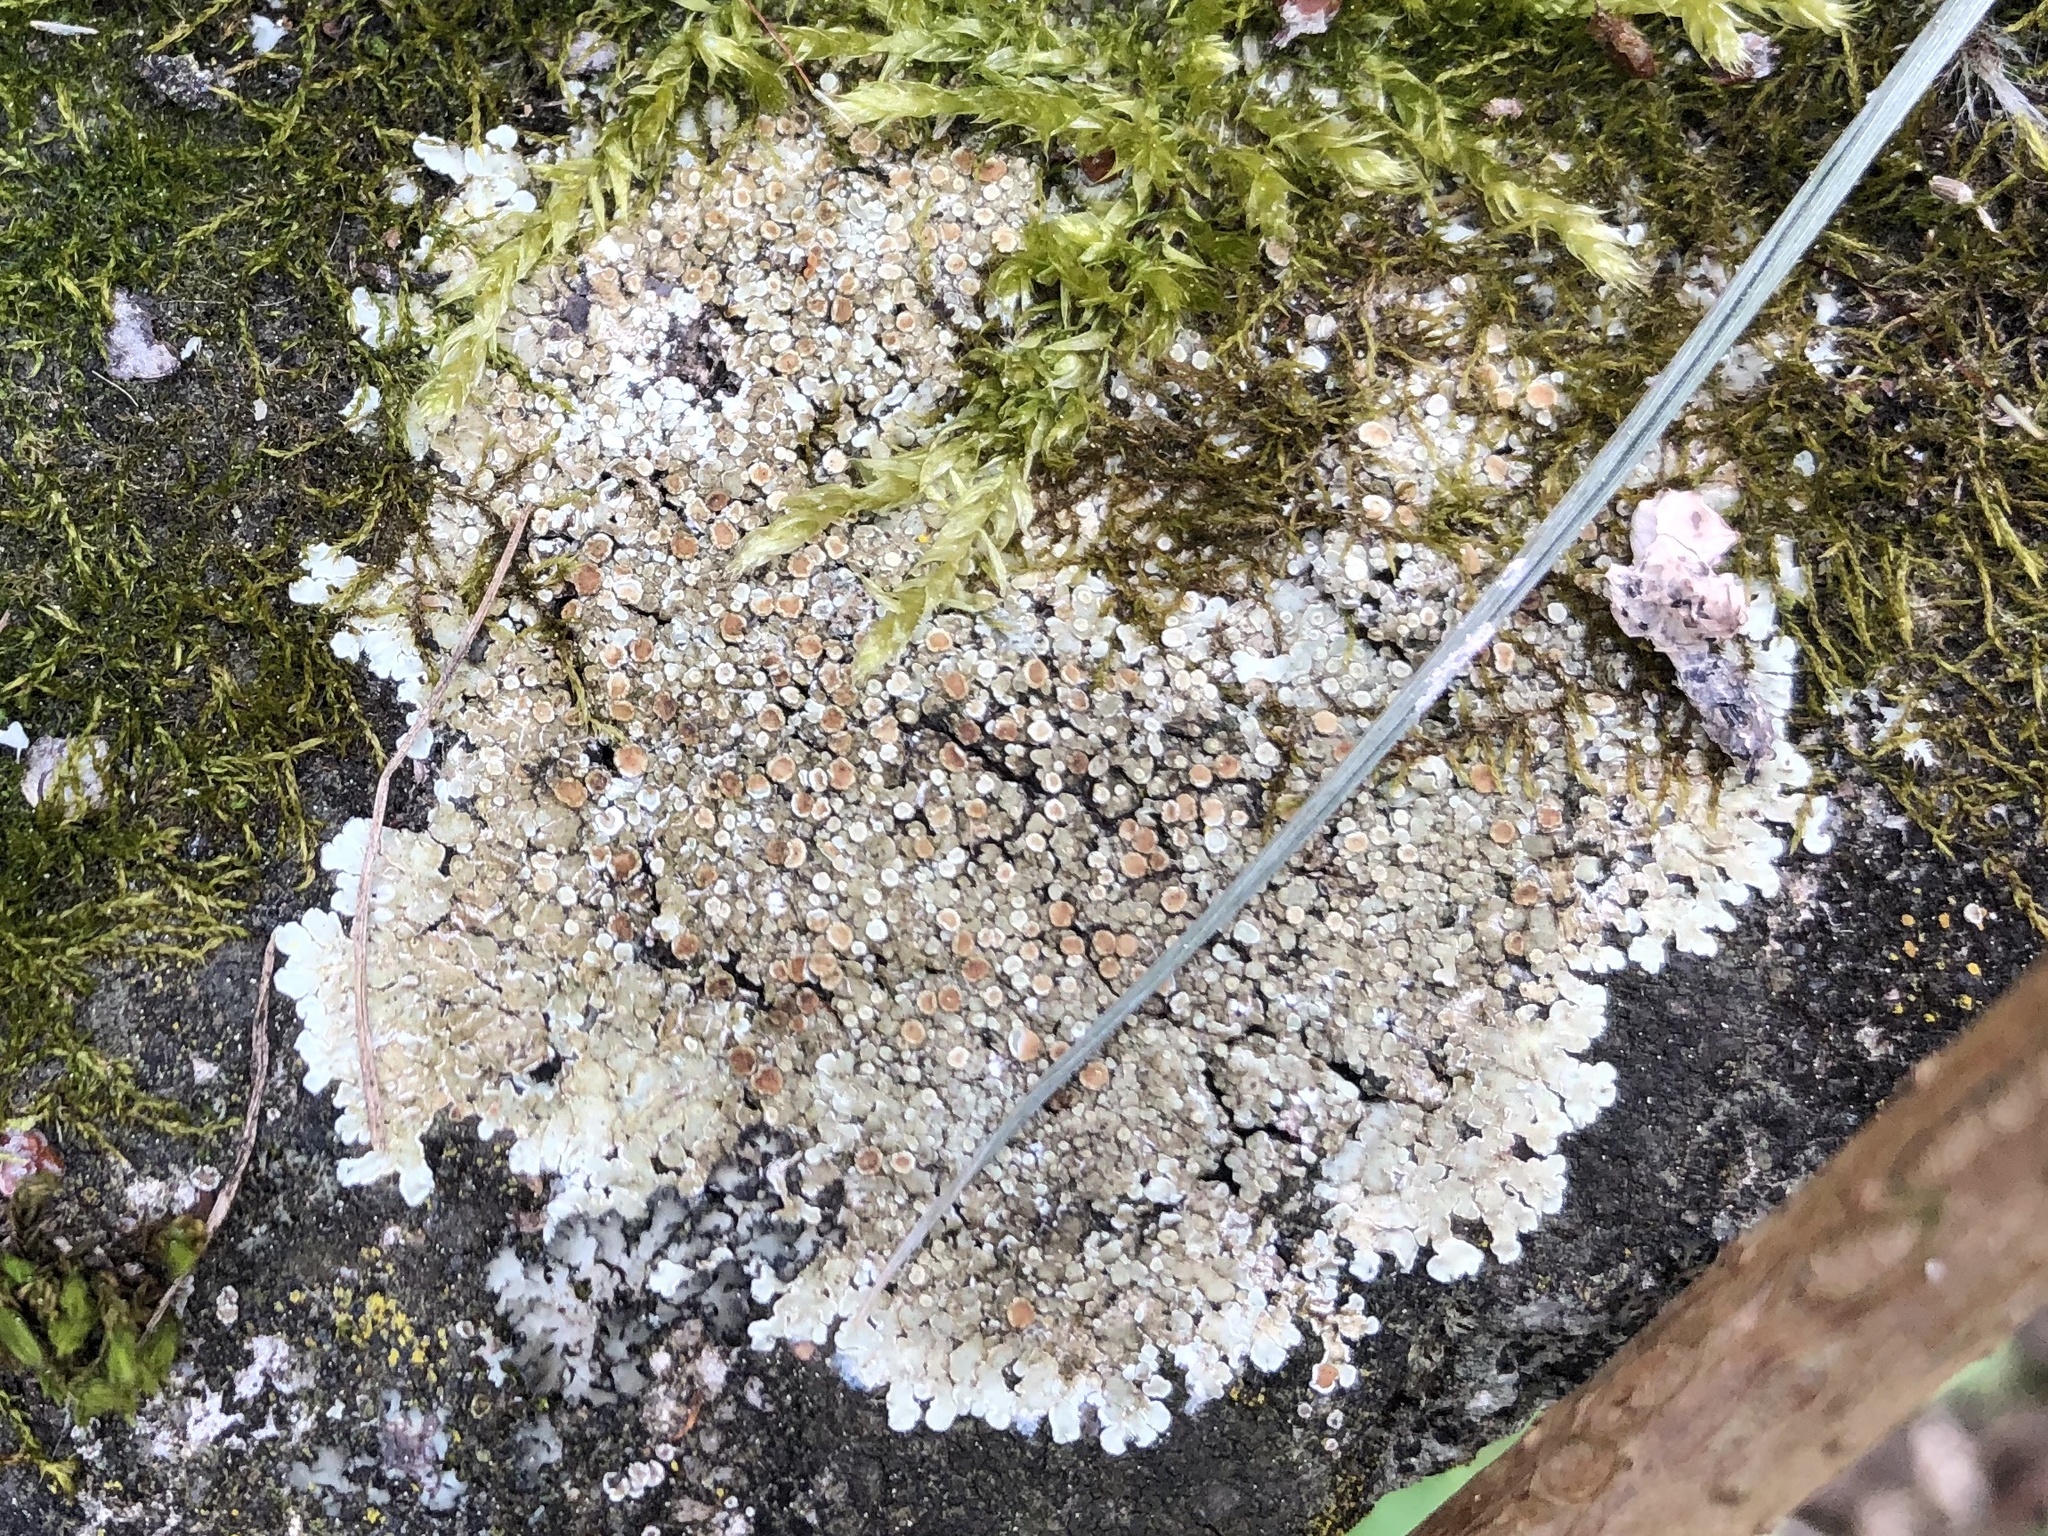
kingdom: Fungi
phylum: Ascomycota
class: Lecanoromycetes
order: Lecanorales
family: Lecanoraceae
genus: Protoparmeliopsis
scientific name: Protoparmeliopsis muralis
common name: Stonewall rim lichen
